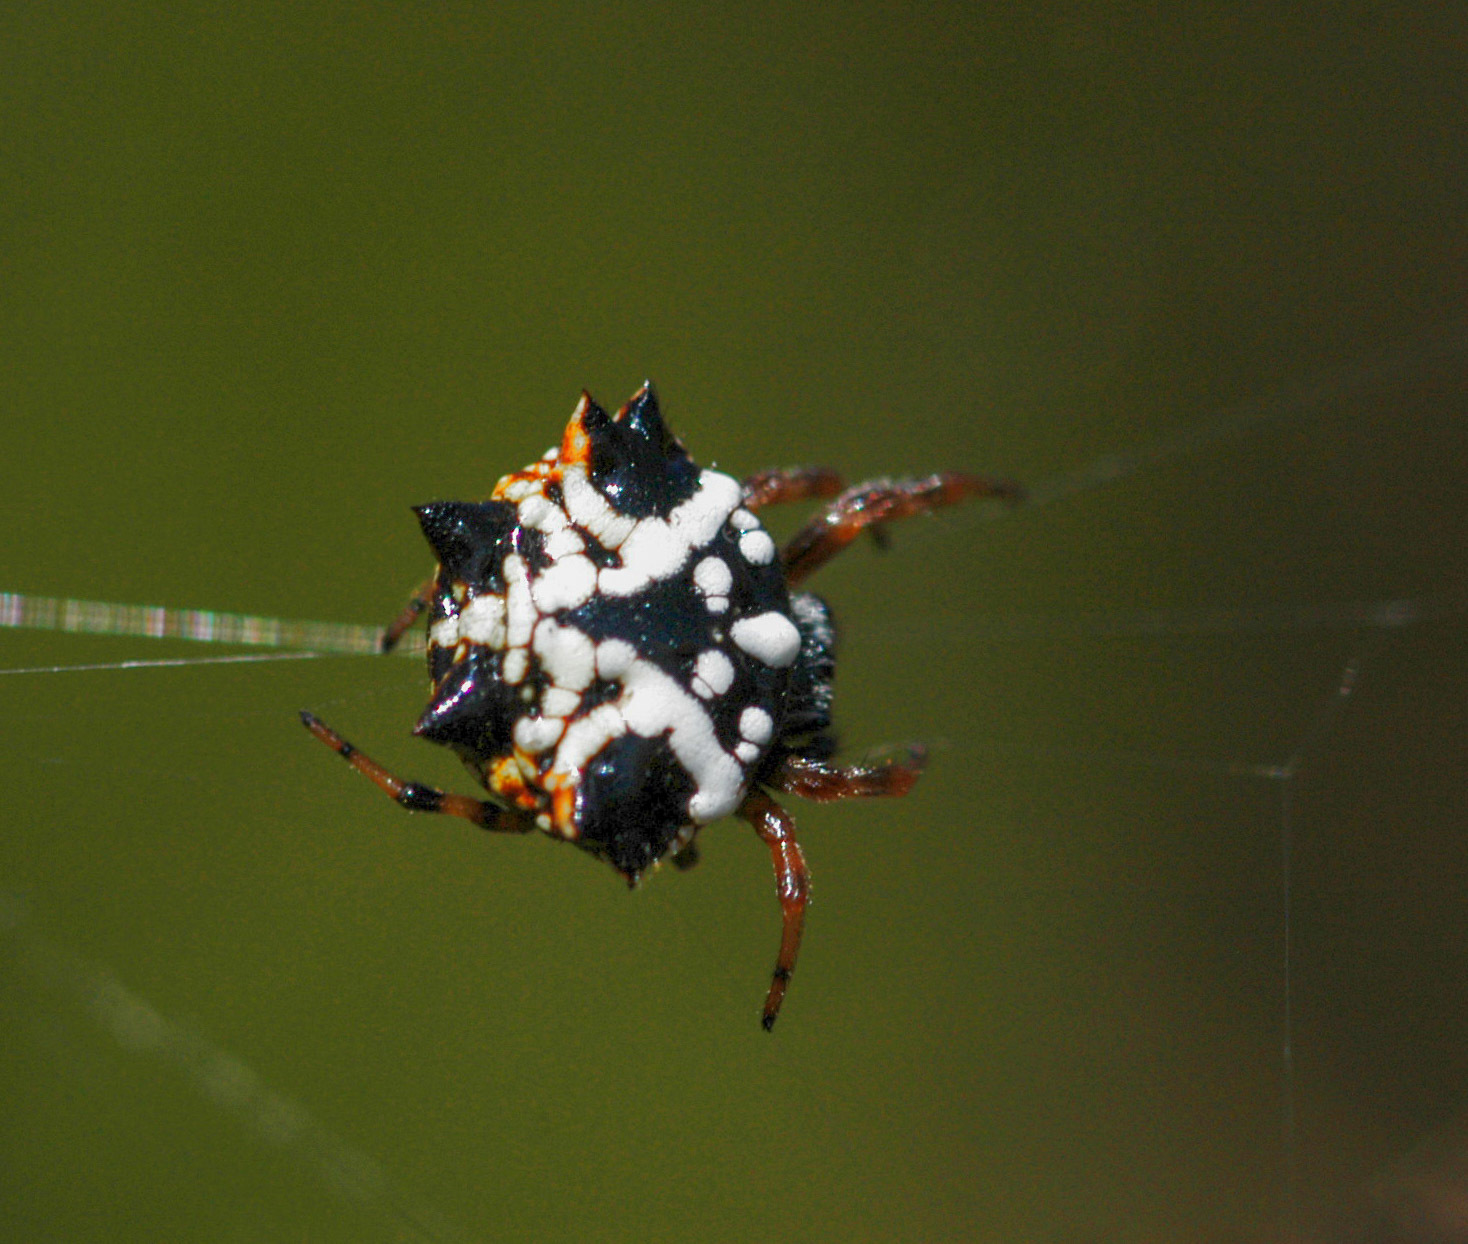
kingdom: Animalia
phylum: Arthropoda
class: Arachnida
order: Araneae
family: Araneidae
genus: Austracantha
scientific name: Austracantha minax
